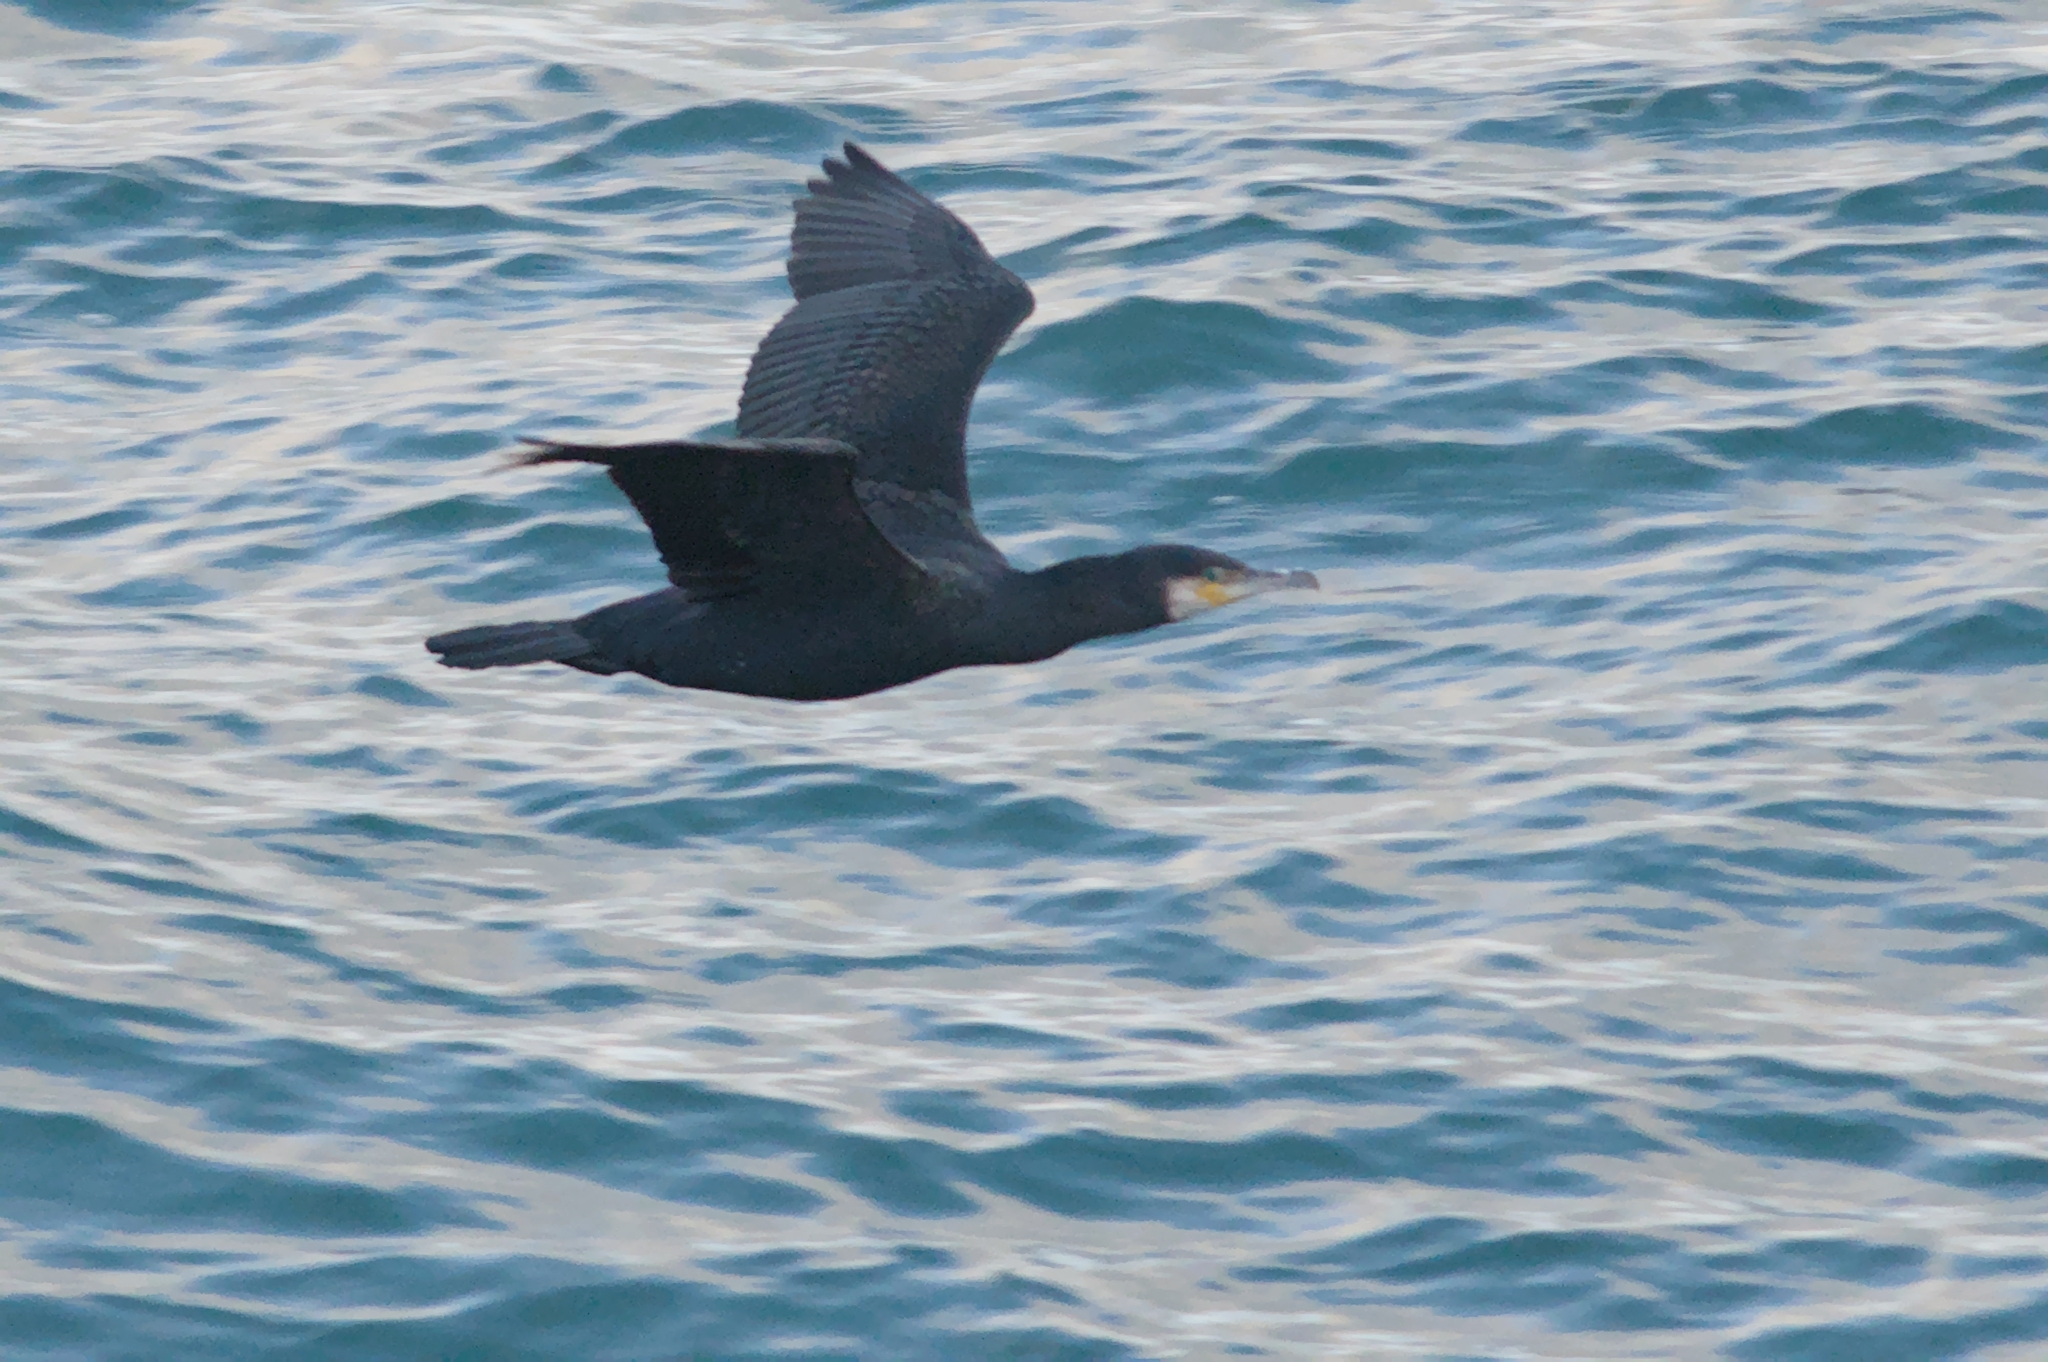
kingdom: Animalia
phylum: Chordata
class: Aves
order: Suliformes
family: Phalacrocoracidae
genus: Phalacrocorax
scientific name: Phalacrocorax carbo
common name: Great cormorant
